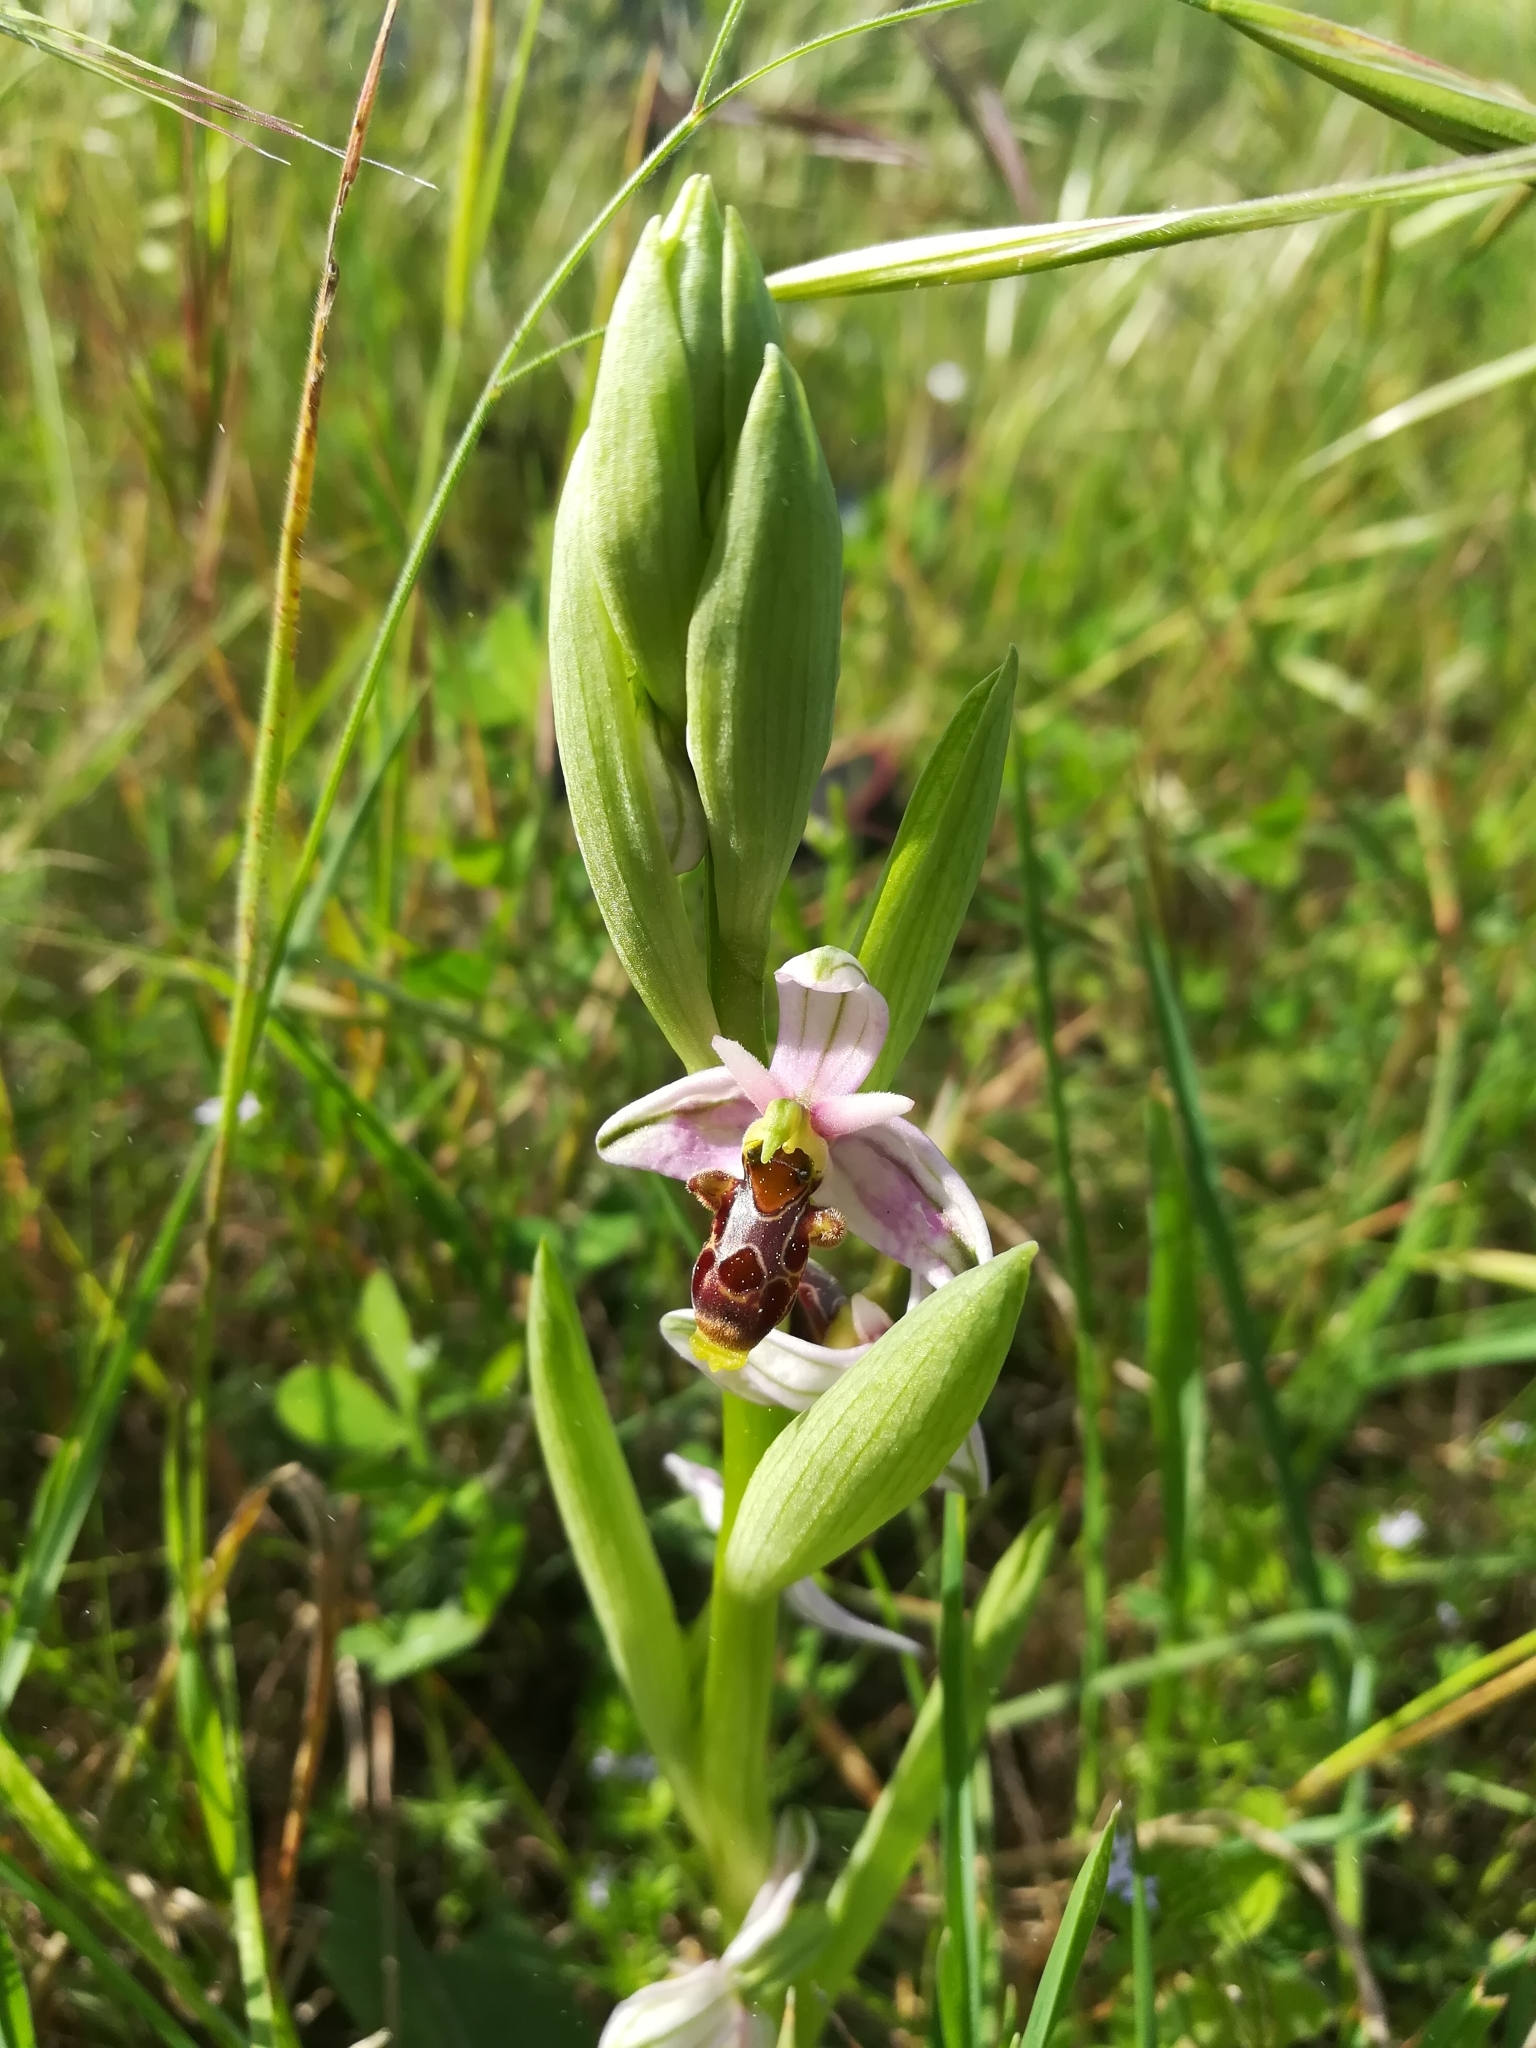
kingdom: Plantae
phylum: Tracheophyta
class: Liliopsida
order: Asparagales
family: Orchidaceae
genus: Ophrys
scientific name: Ophrys scolopax
